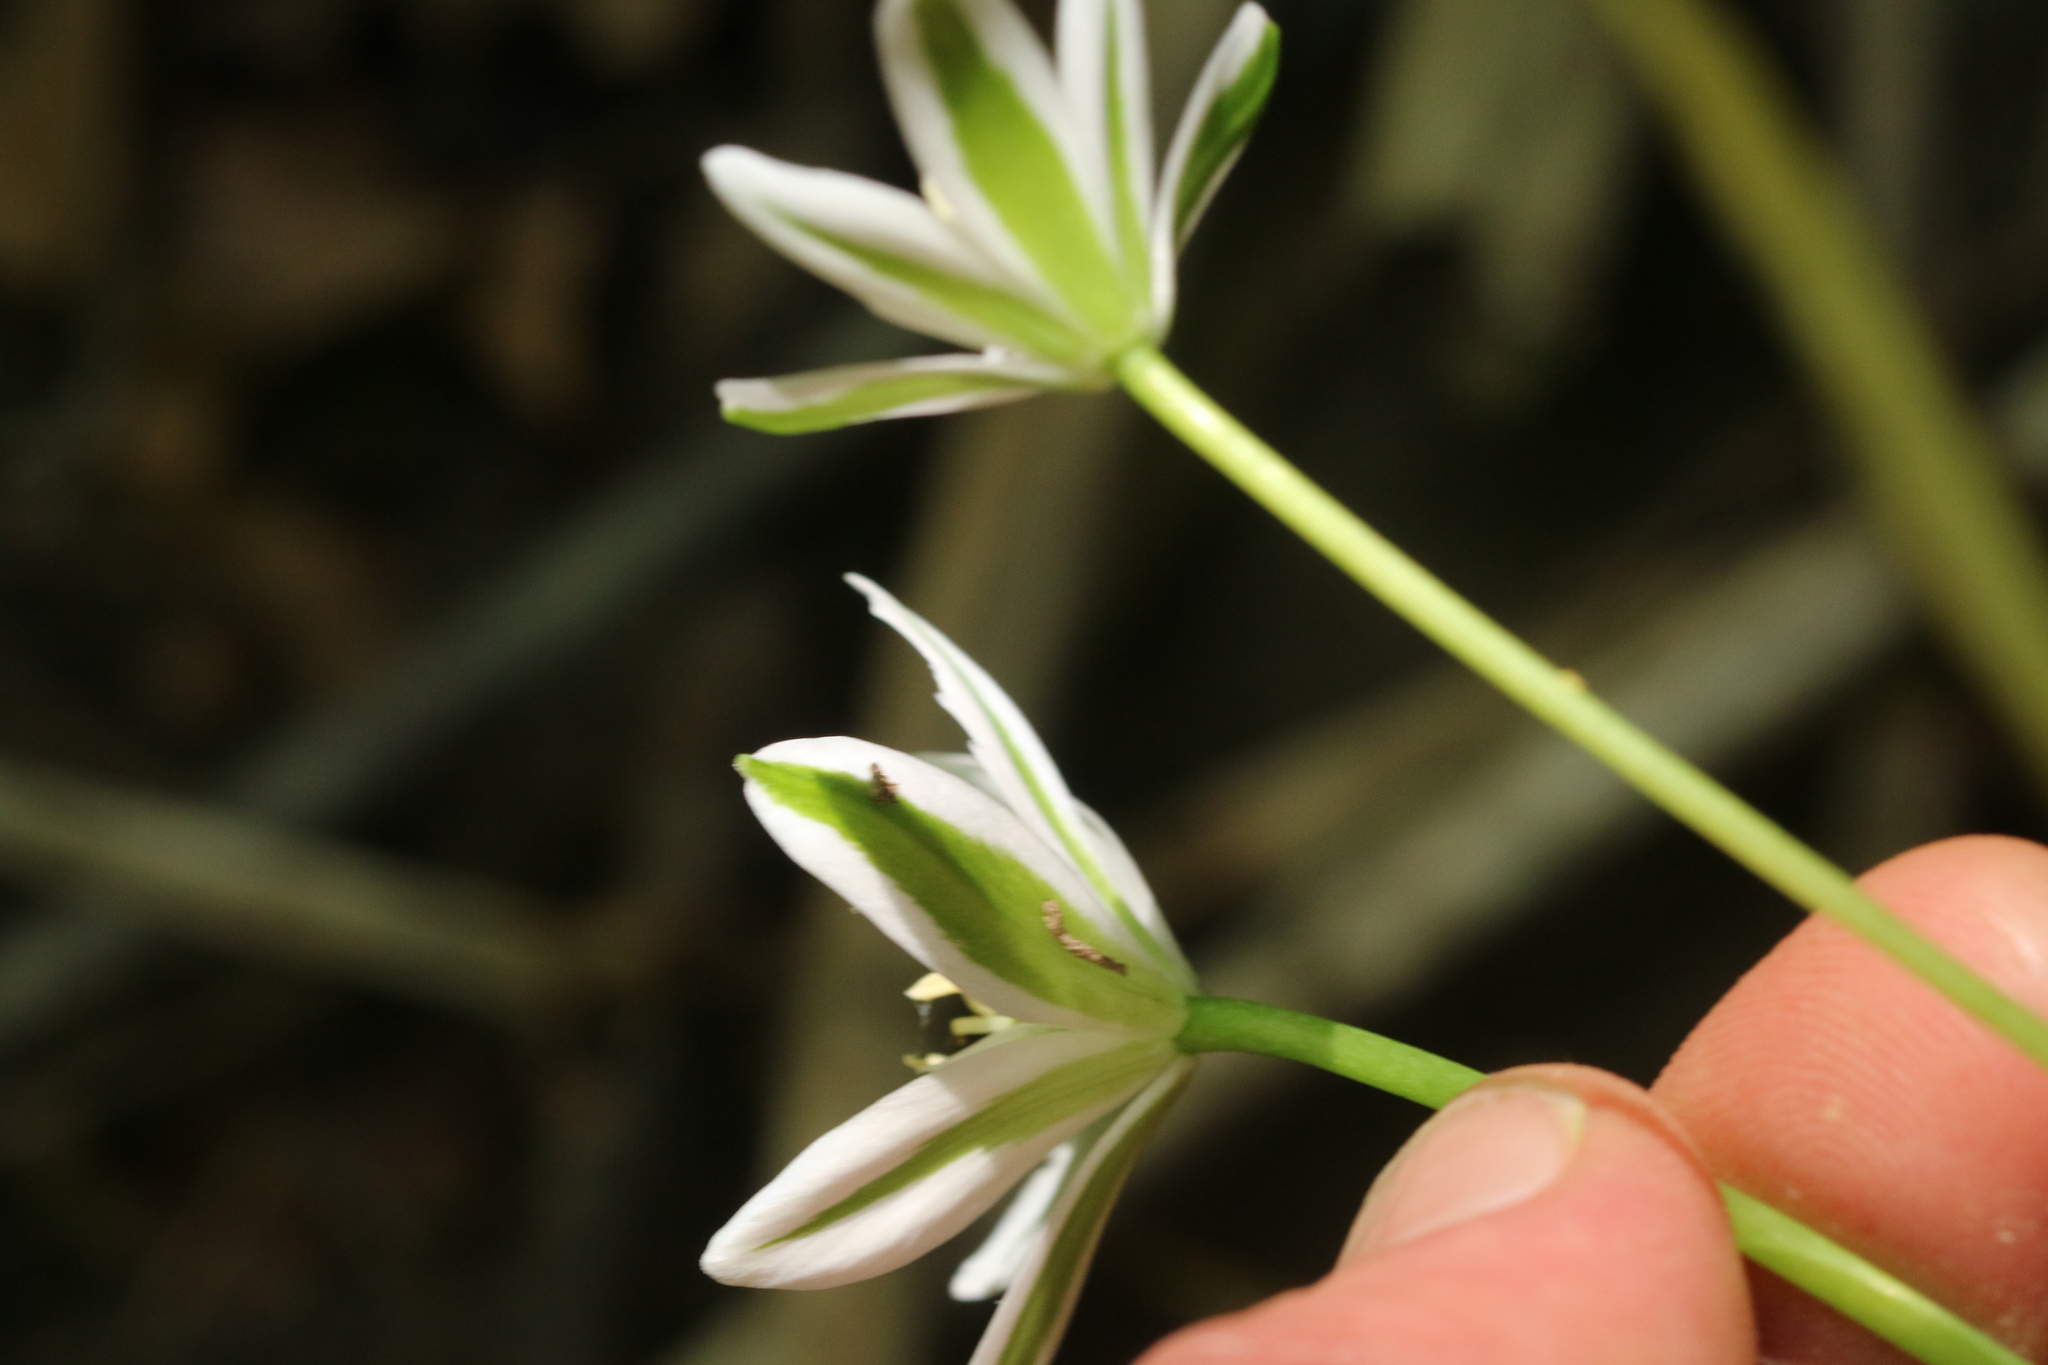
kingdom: Plantae
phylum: Tracheophyta
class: Liliopsida
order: Asparagales
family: Asparagaceae
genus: Ornithogalum
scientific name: Ornithogalum umbellatum
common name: Garden star-of-bethlehem
